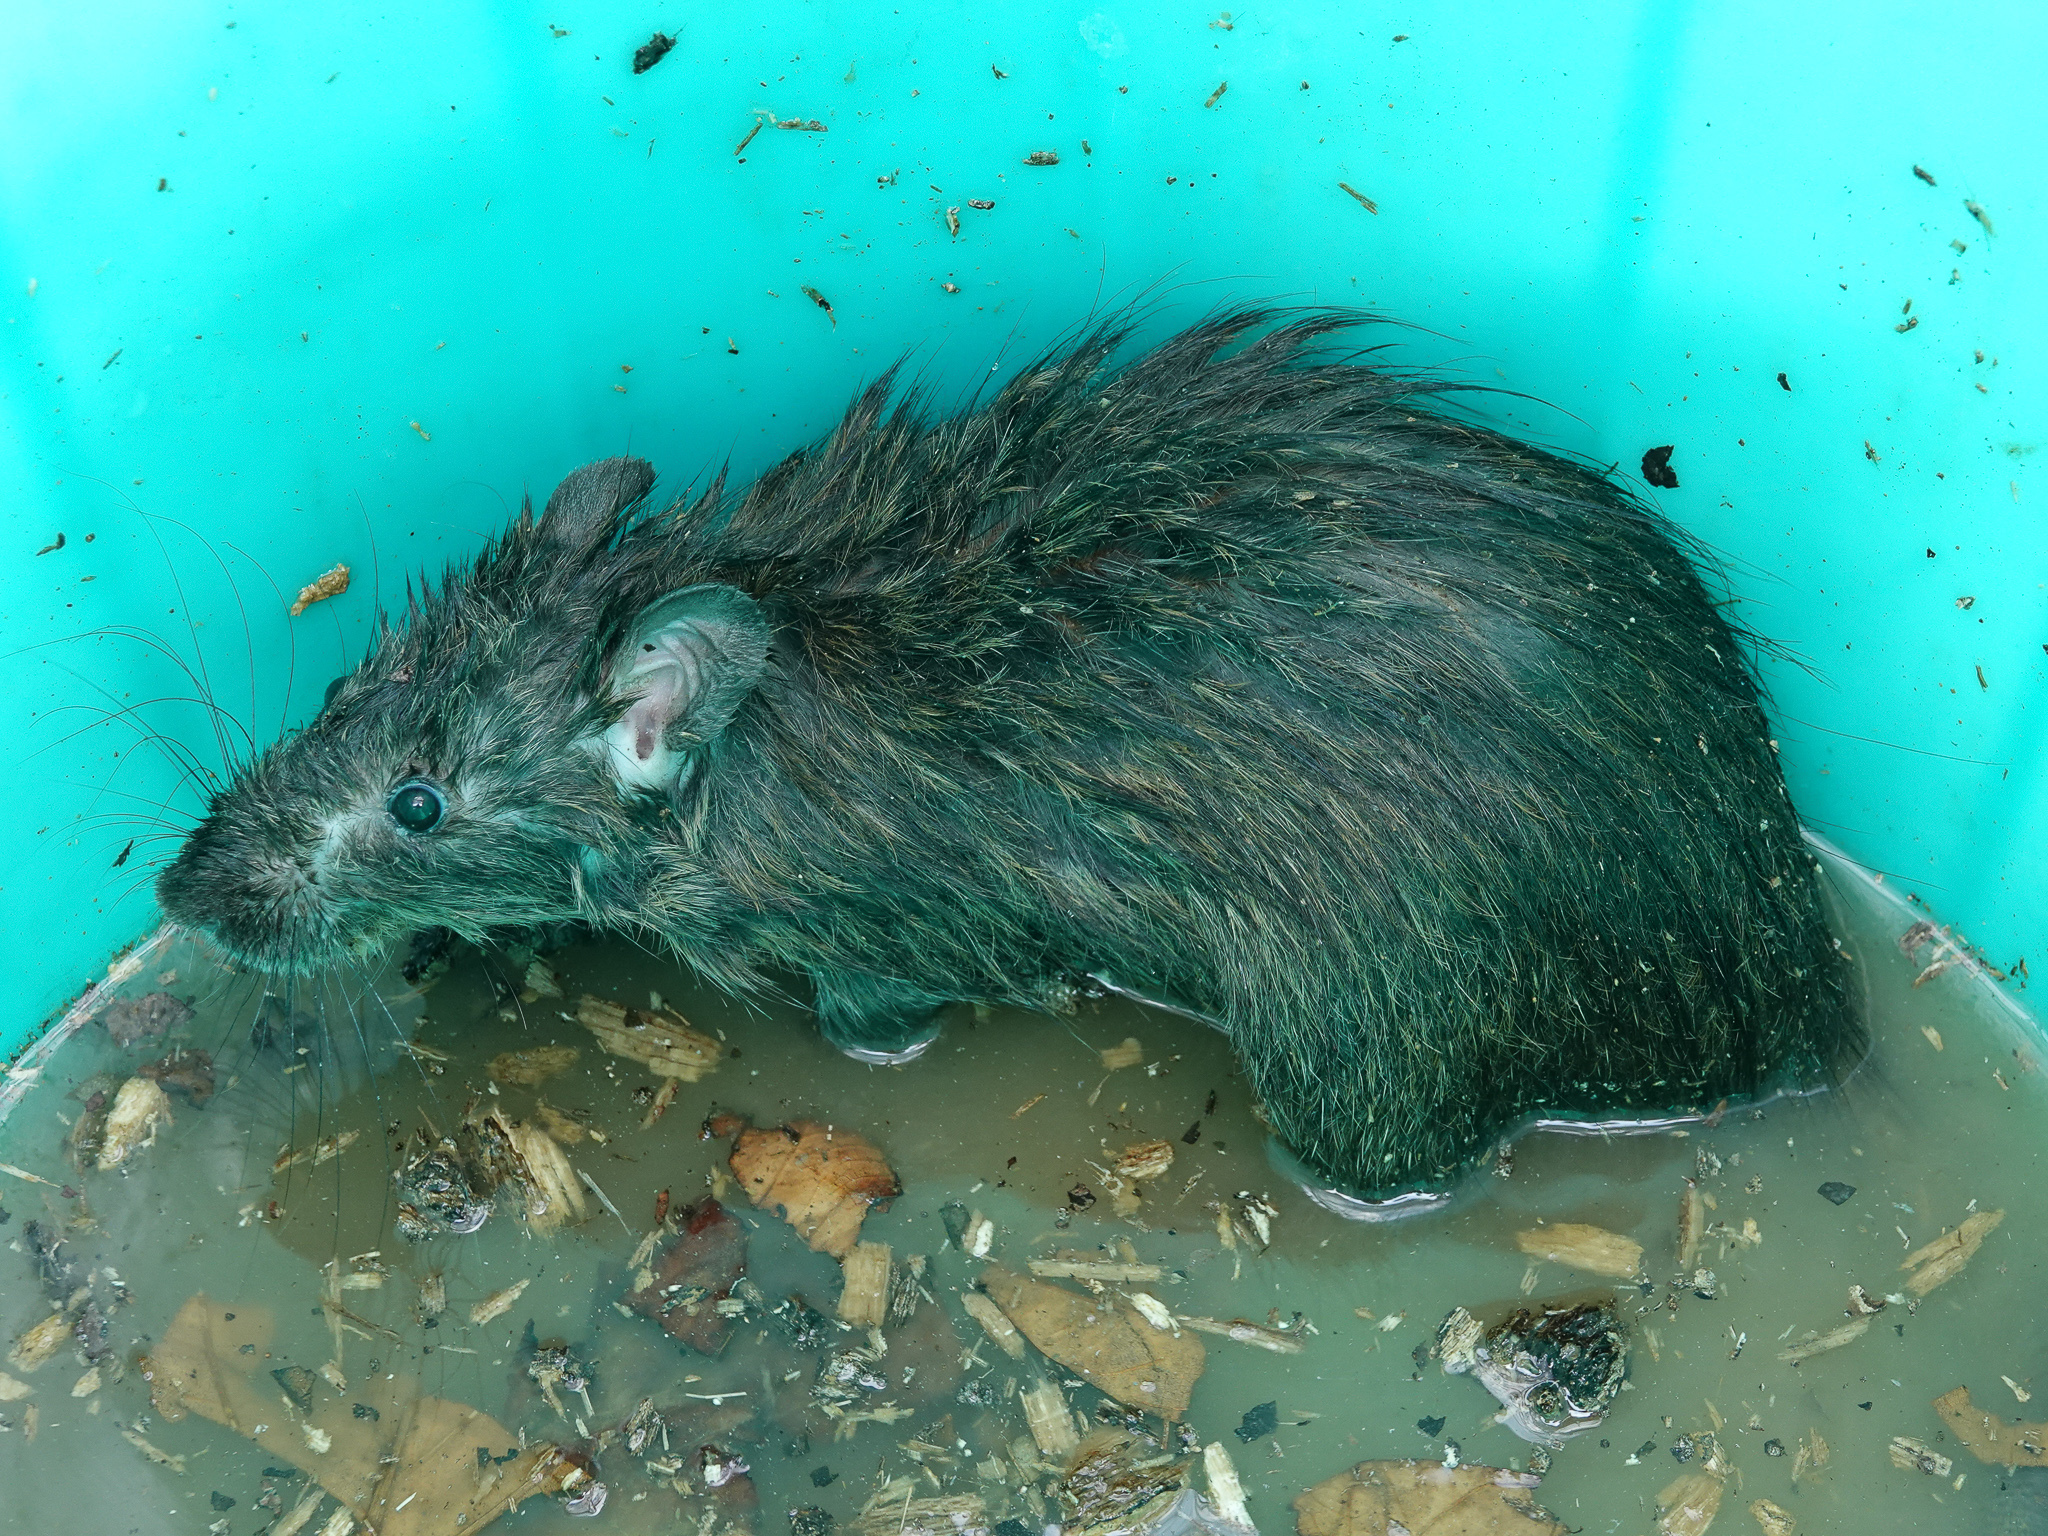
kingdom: Animalia
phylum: Chordata
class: Mammalia
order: Rodentia
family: Muridae
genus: Rattus
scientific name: Rattus rattus
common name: Black rat
